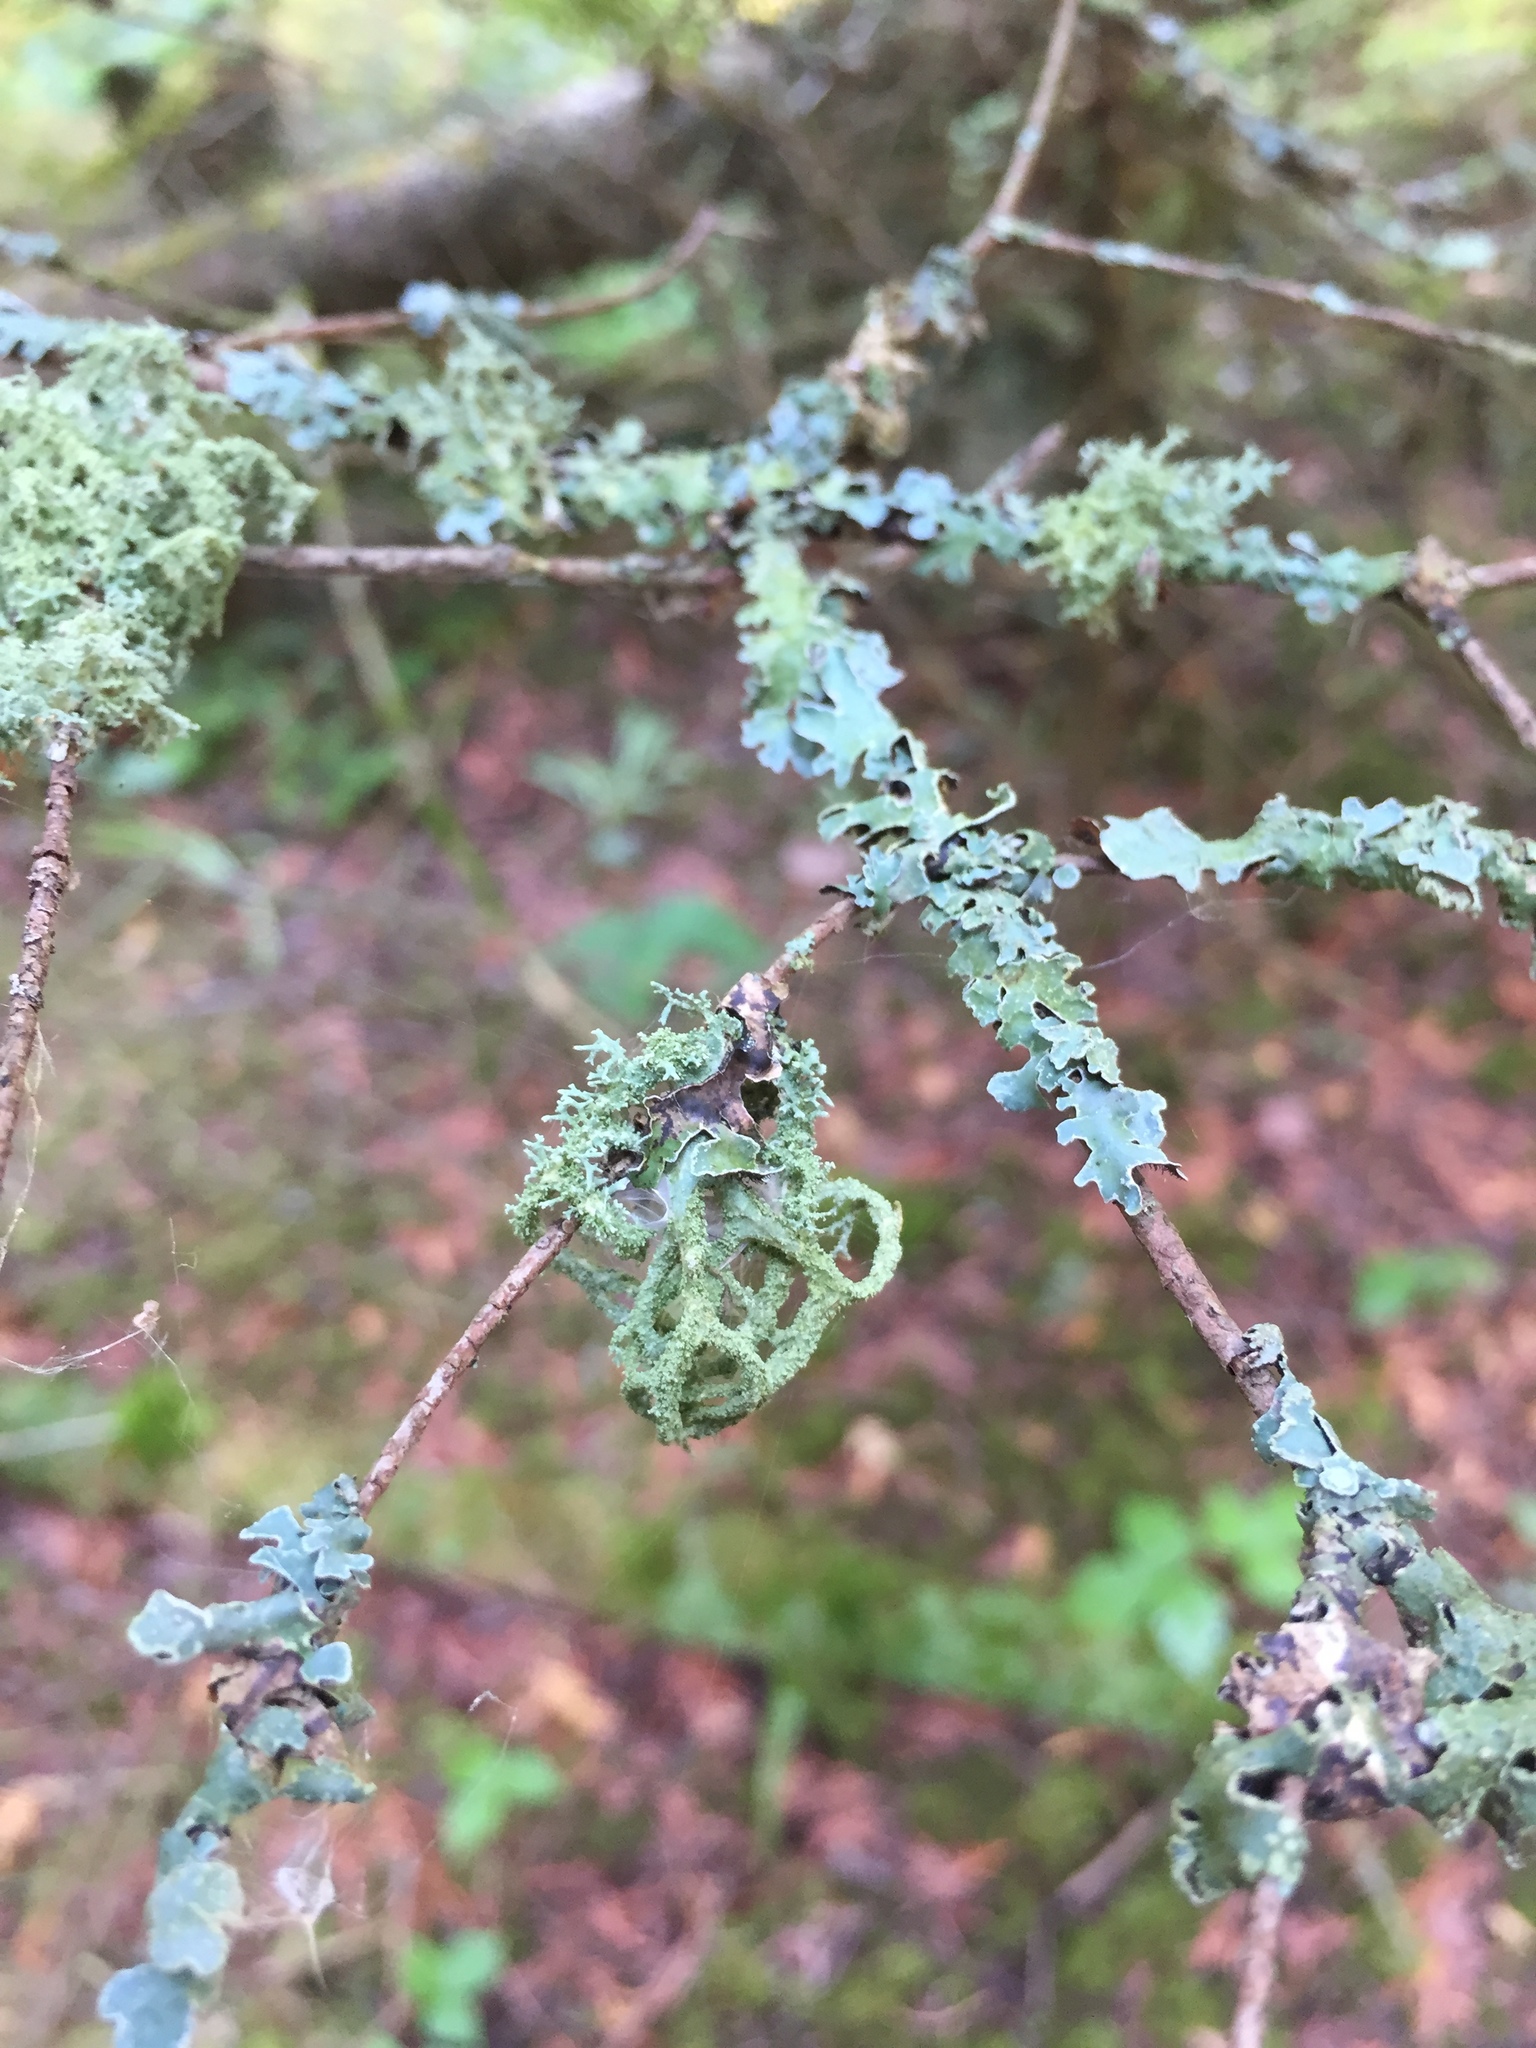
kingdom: Fungi
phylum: Ascomycota
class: Lecanoromycetes
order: Lecanorales
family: Parmeliaceae
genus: Evernia
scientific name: Evernia mesomorpha
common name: Boreal oak moss lichen
